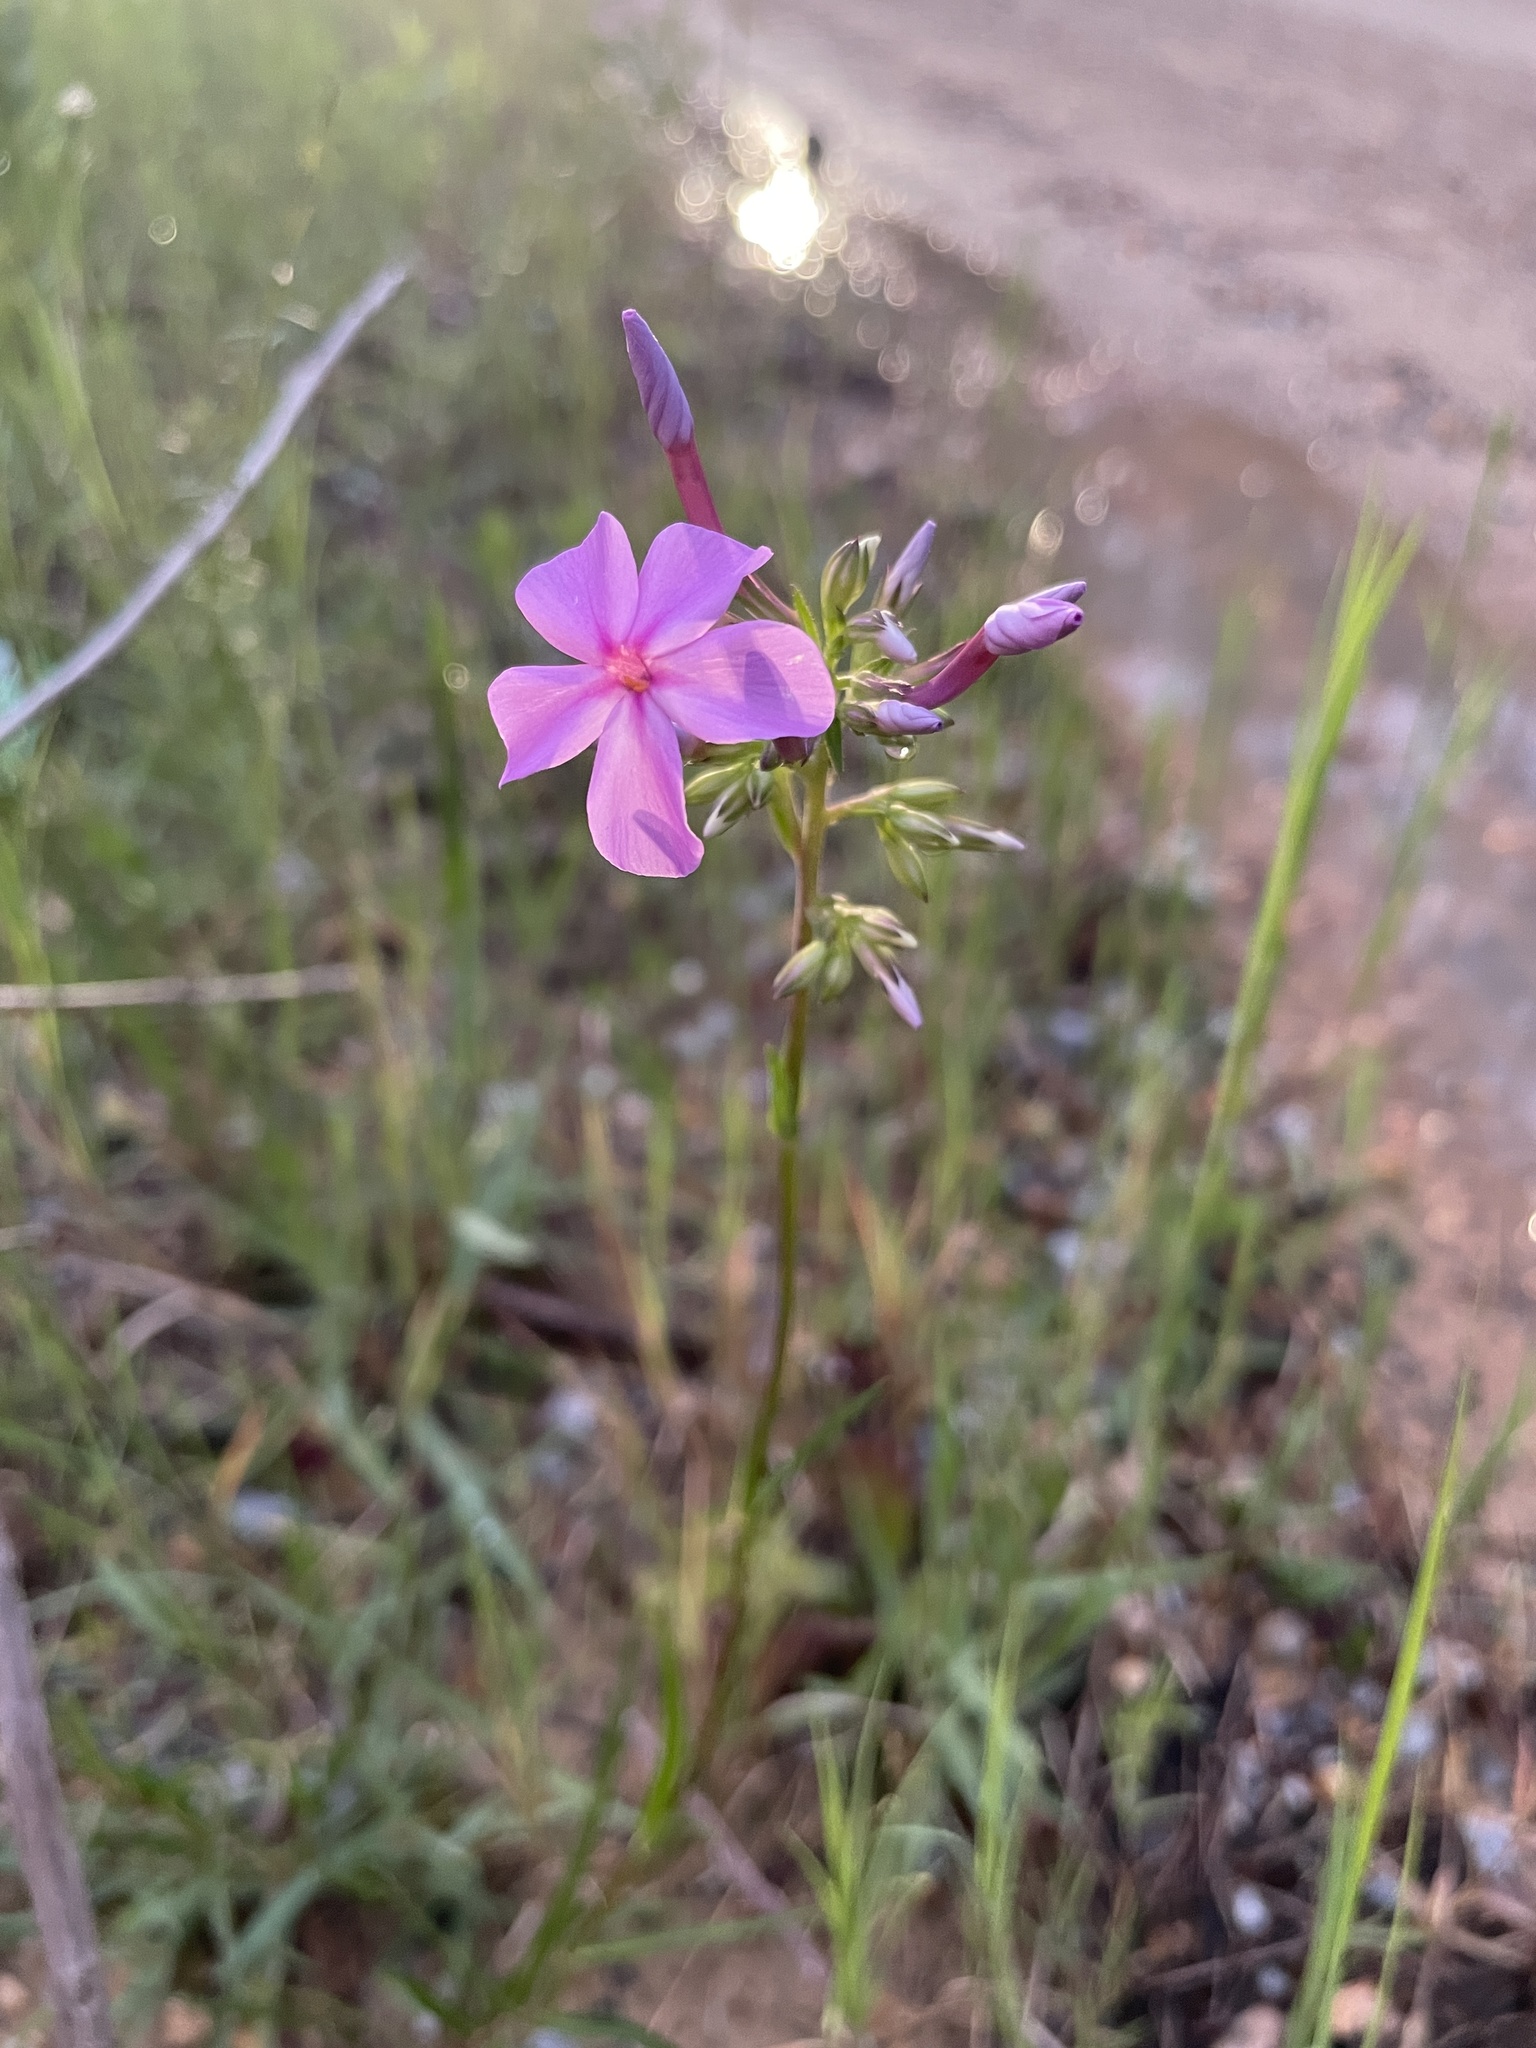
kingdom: Plantae
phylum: Tracheophyta
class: Magnoliopsida
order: Ericales
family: Polemoniaceae
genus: Phlox
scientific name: Phlox carolina
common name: Thick-leaf phlox
